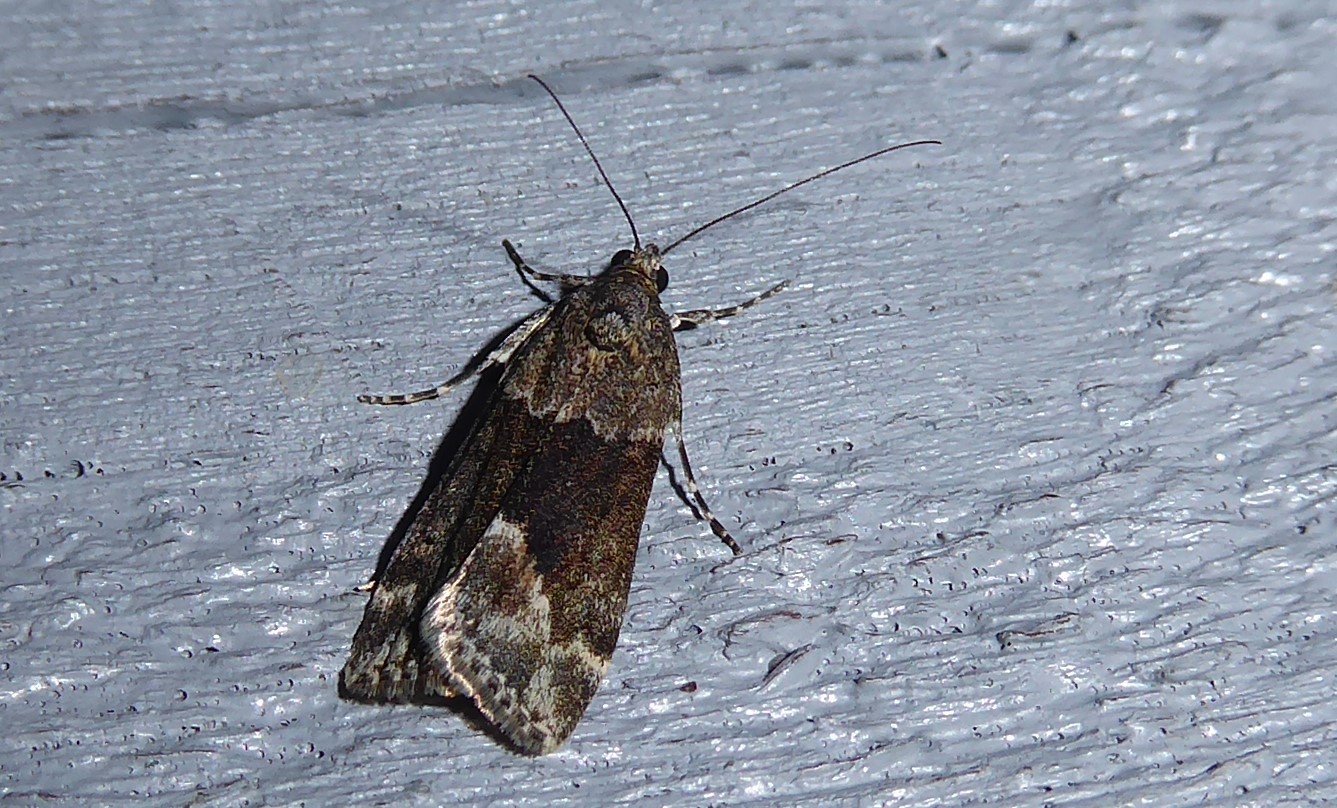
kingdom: Animalia
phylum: Arthropoda
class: Insecta
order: Lepidoptera
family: Crambidae
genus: Eudonia
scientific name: Eudonia submarginalis
